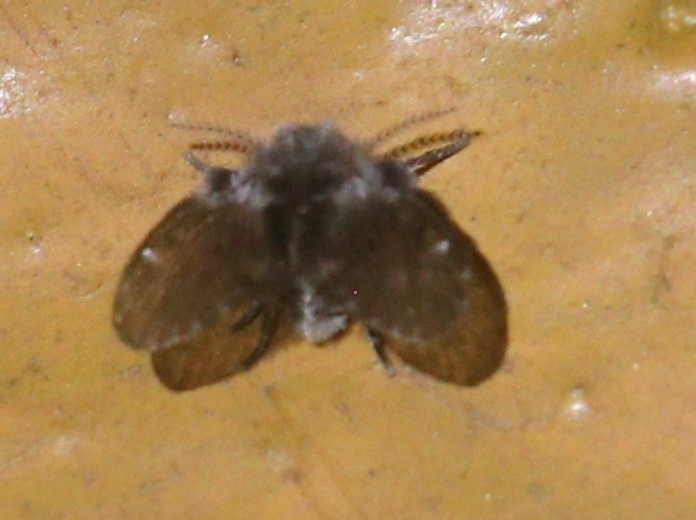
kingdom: Animalia
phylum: Arthropoda
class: Insecta
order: Diptera
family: Psychodidae
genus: Clogmia
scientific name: Clogmia albipunctatus
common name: White-spotted moth fly
